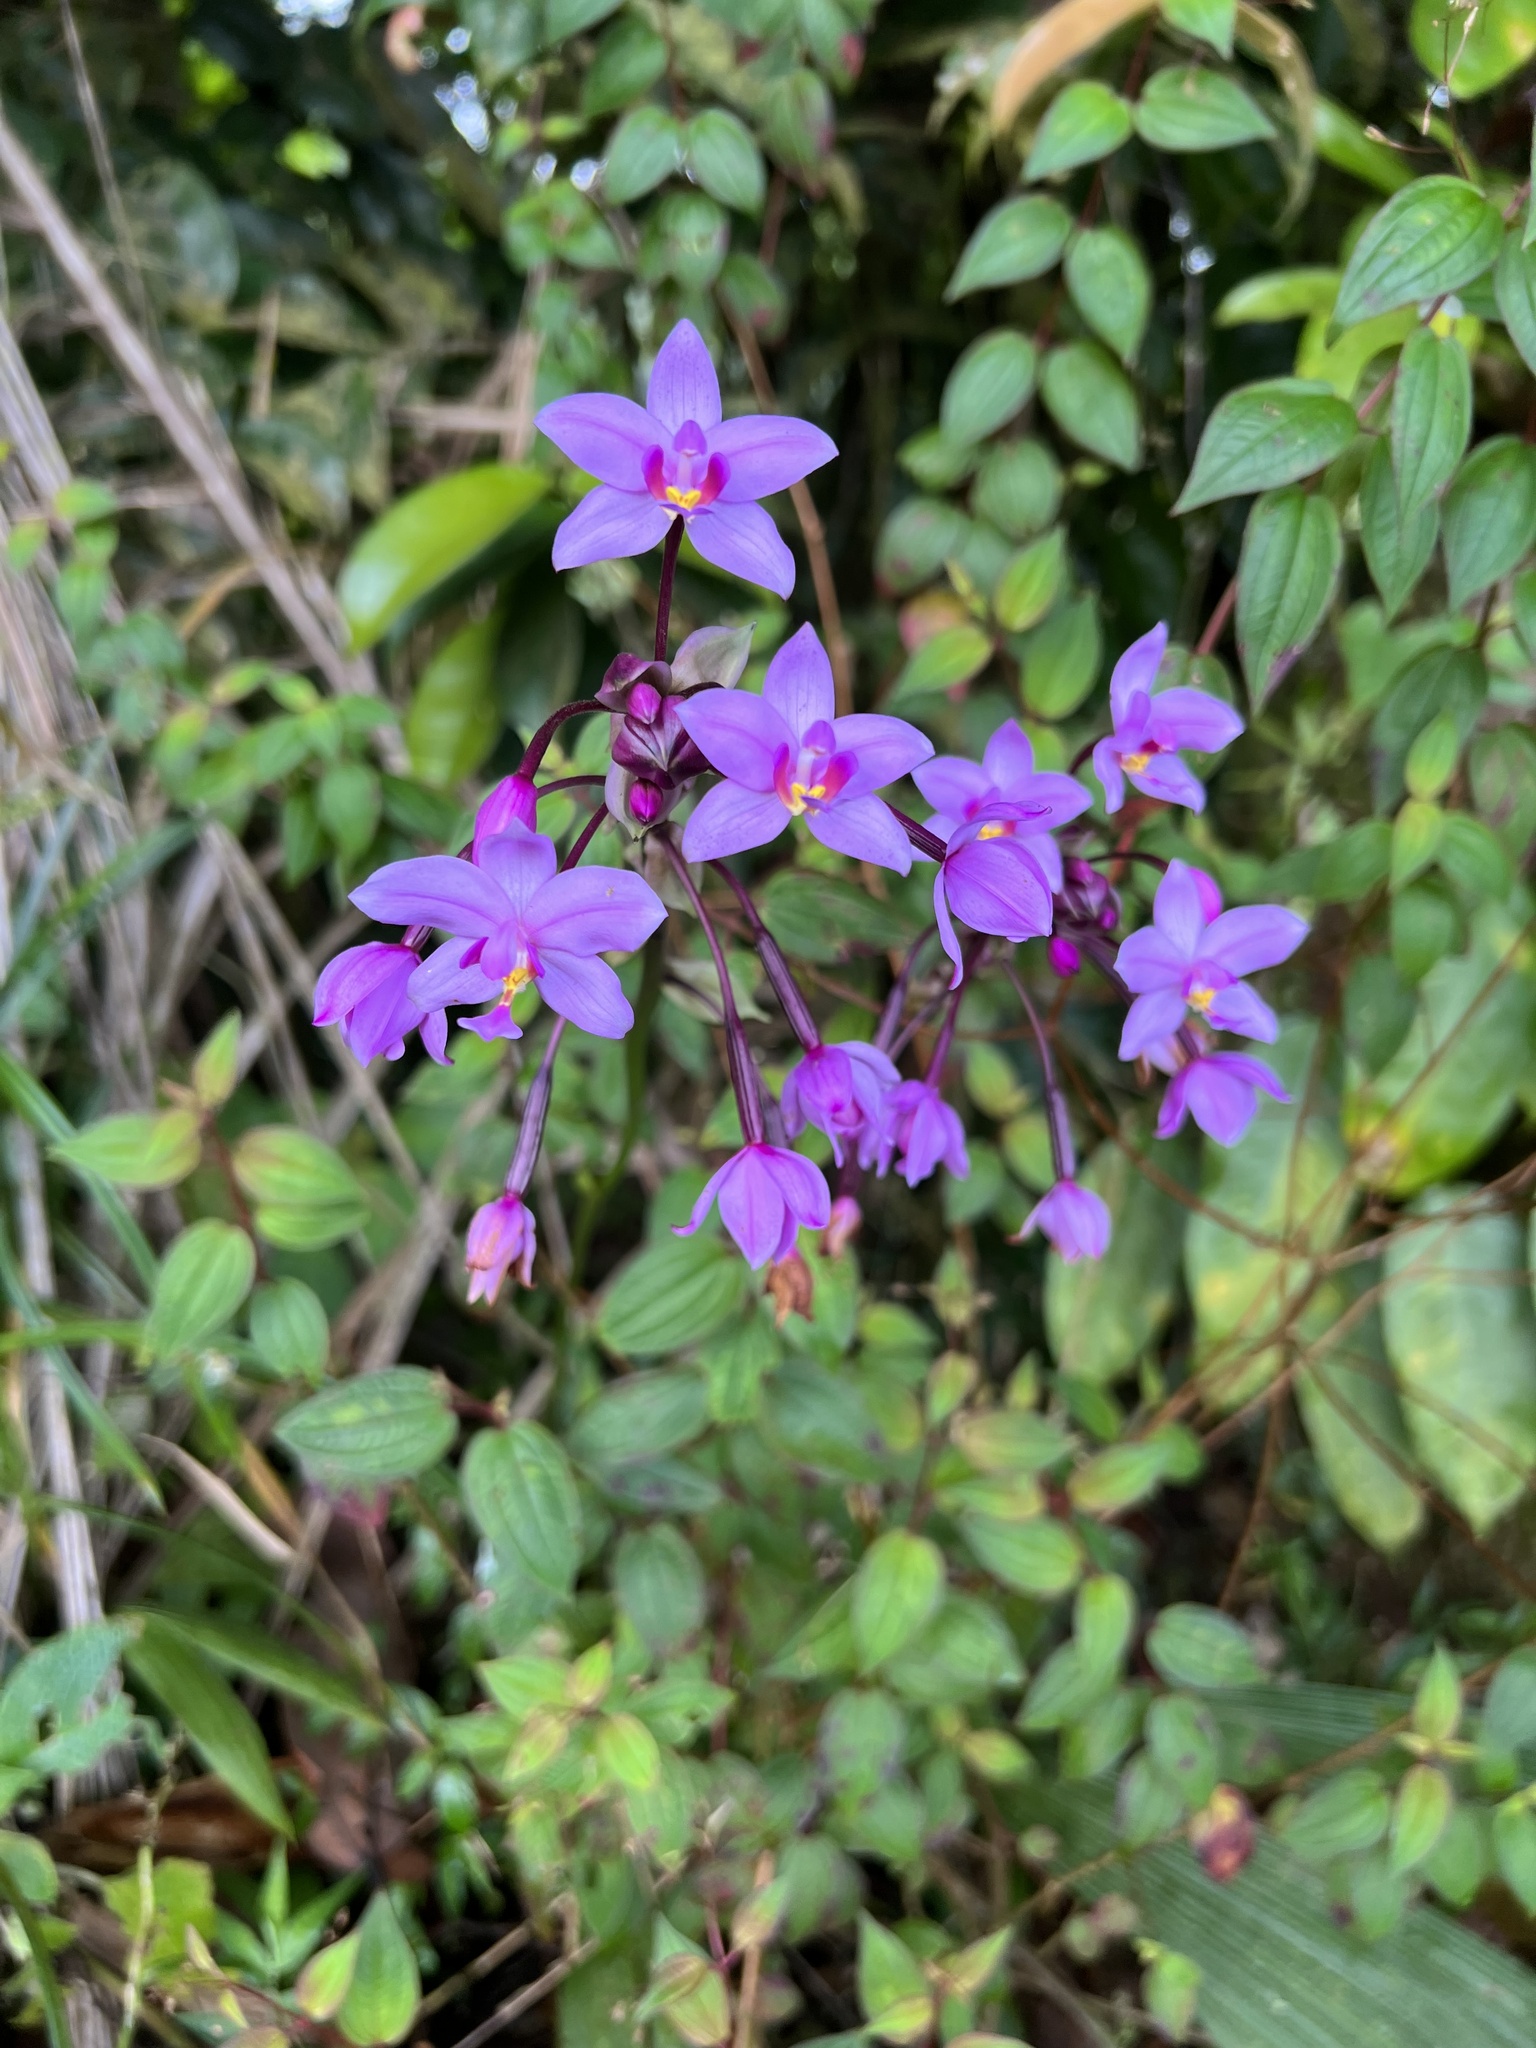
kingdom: Plantae
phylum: Tracheophyta
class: Liliopsida
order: Asparagales
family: Orchidaceae
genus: Spathoglottis
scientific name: Spathoglottis plicata
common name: Philippine ground orchid
